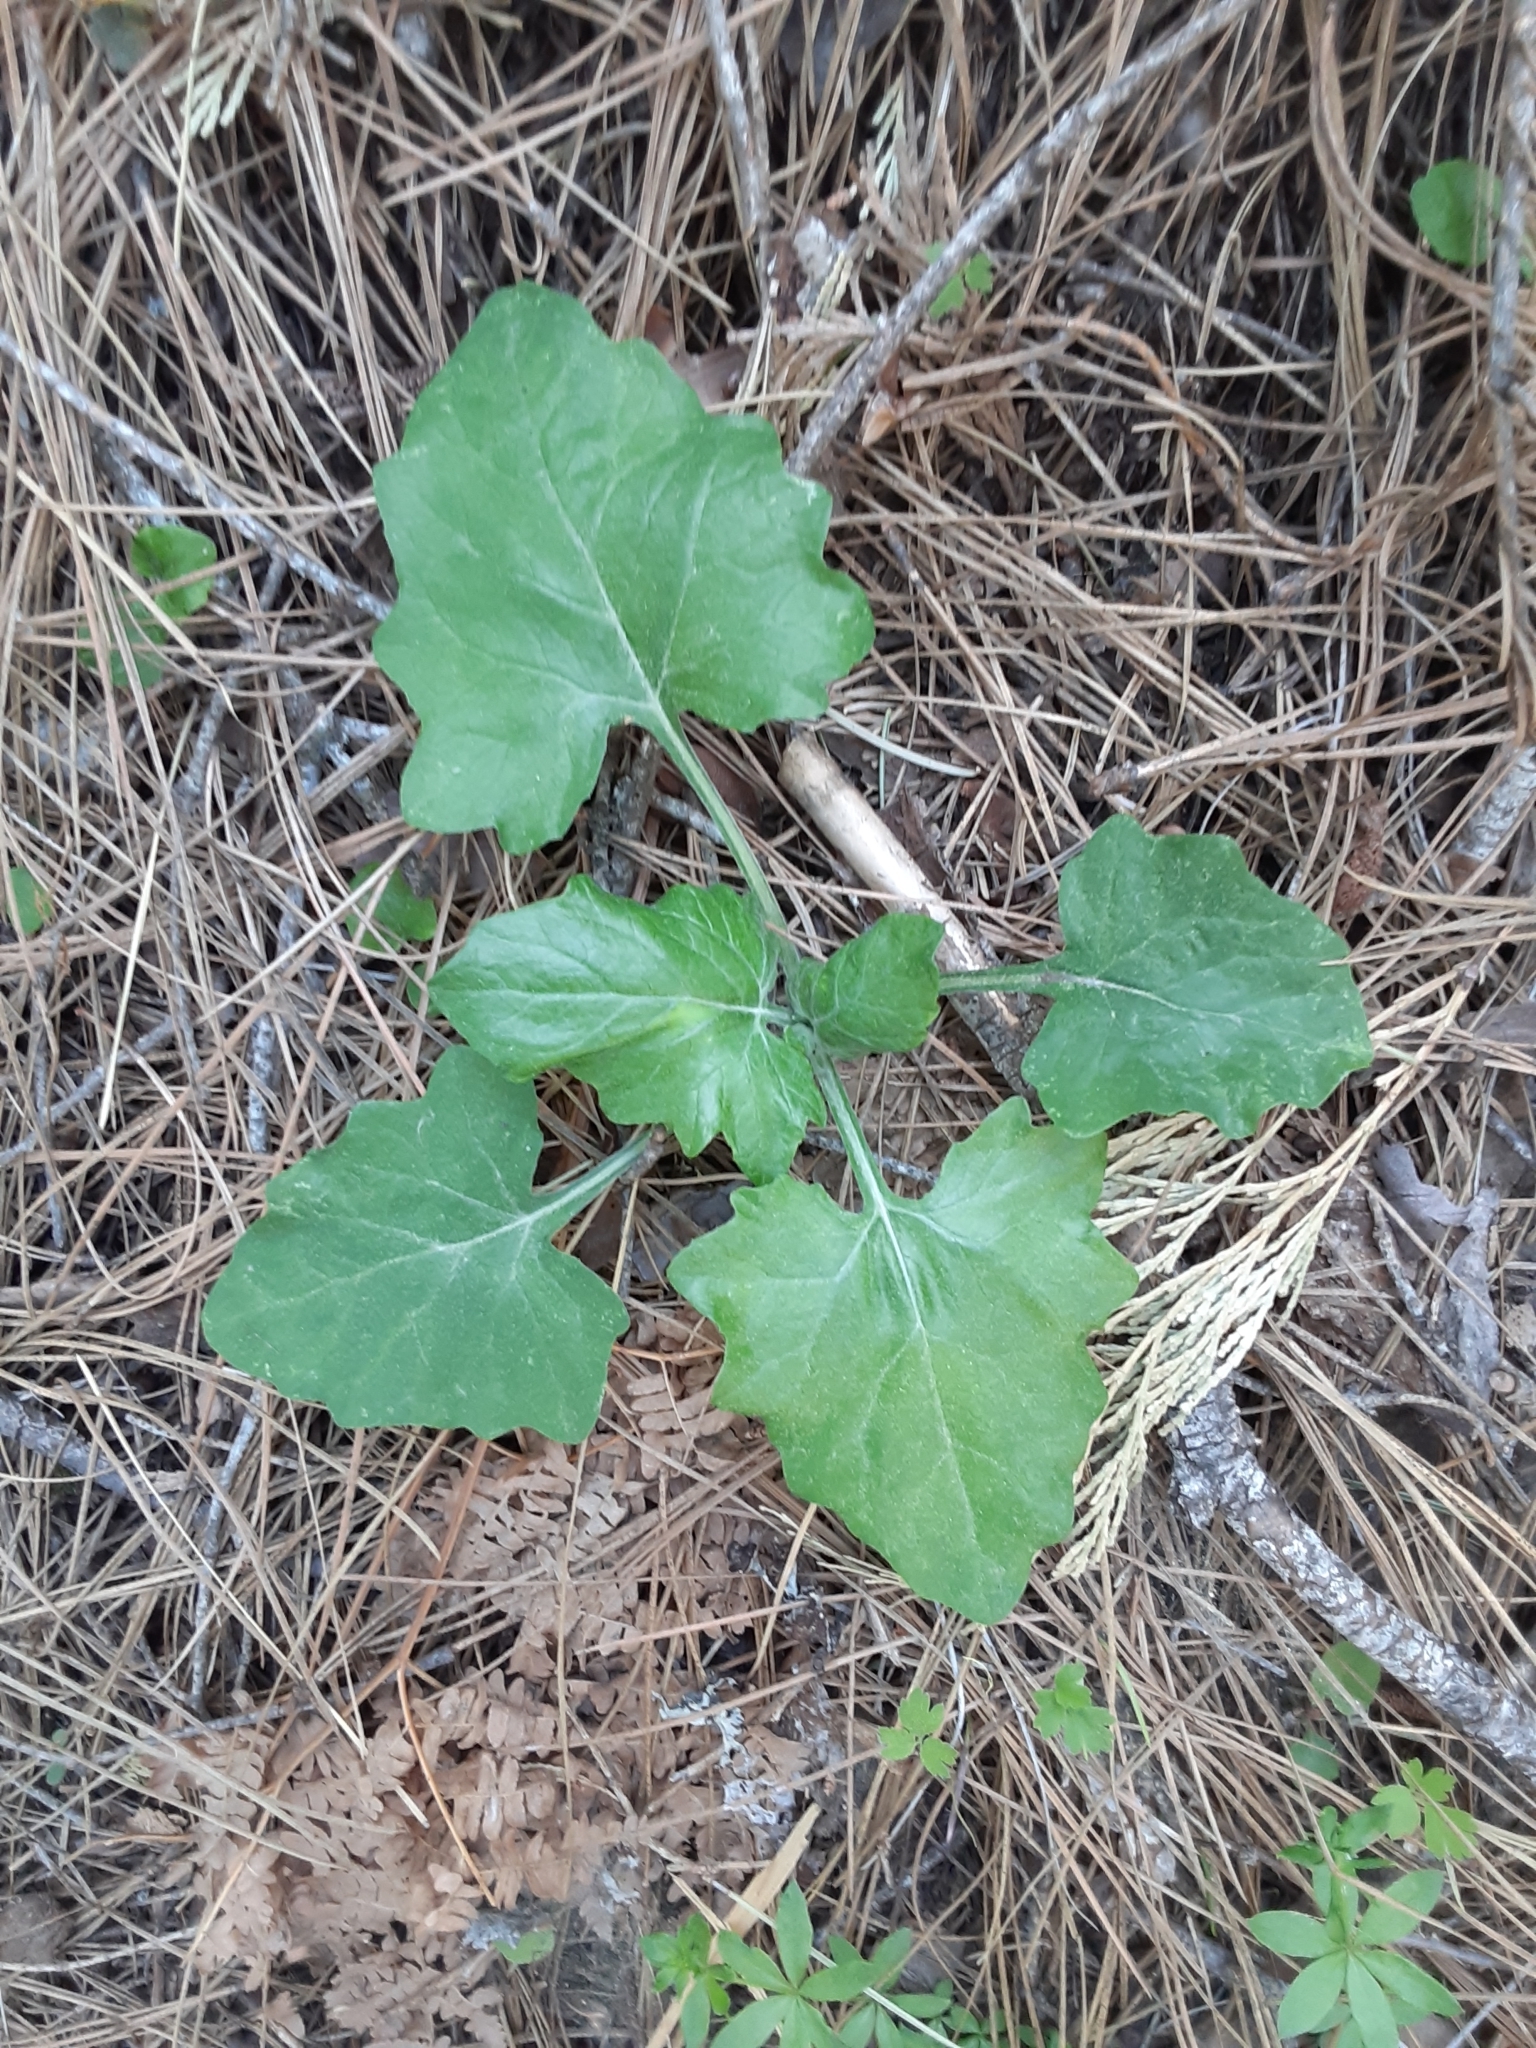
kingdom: Plantae
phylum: Tracheophyta
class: Magnoliopsida
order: Asterales
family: Asteraceae
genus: Adenocaulon
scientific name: Adenocaulon bicolor
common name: Trailplant
